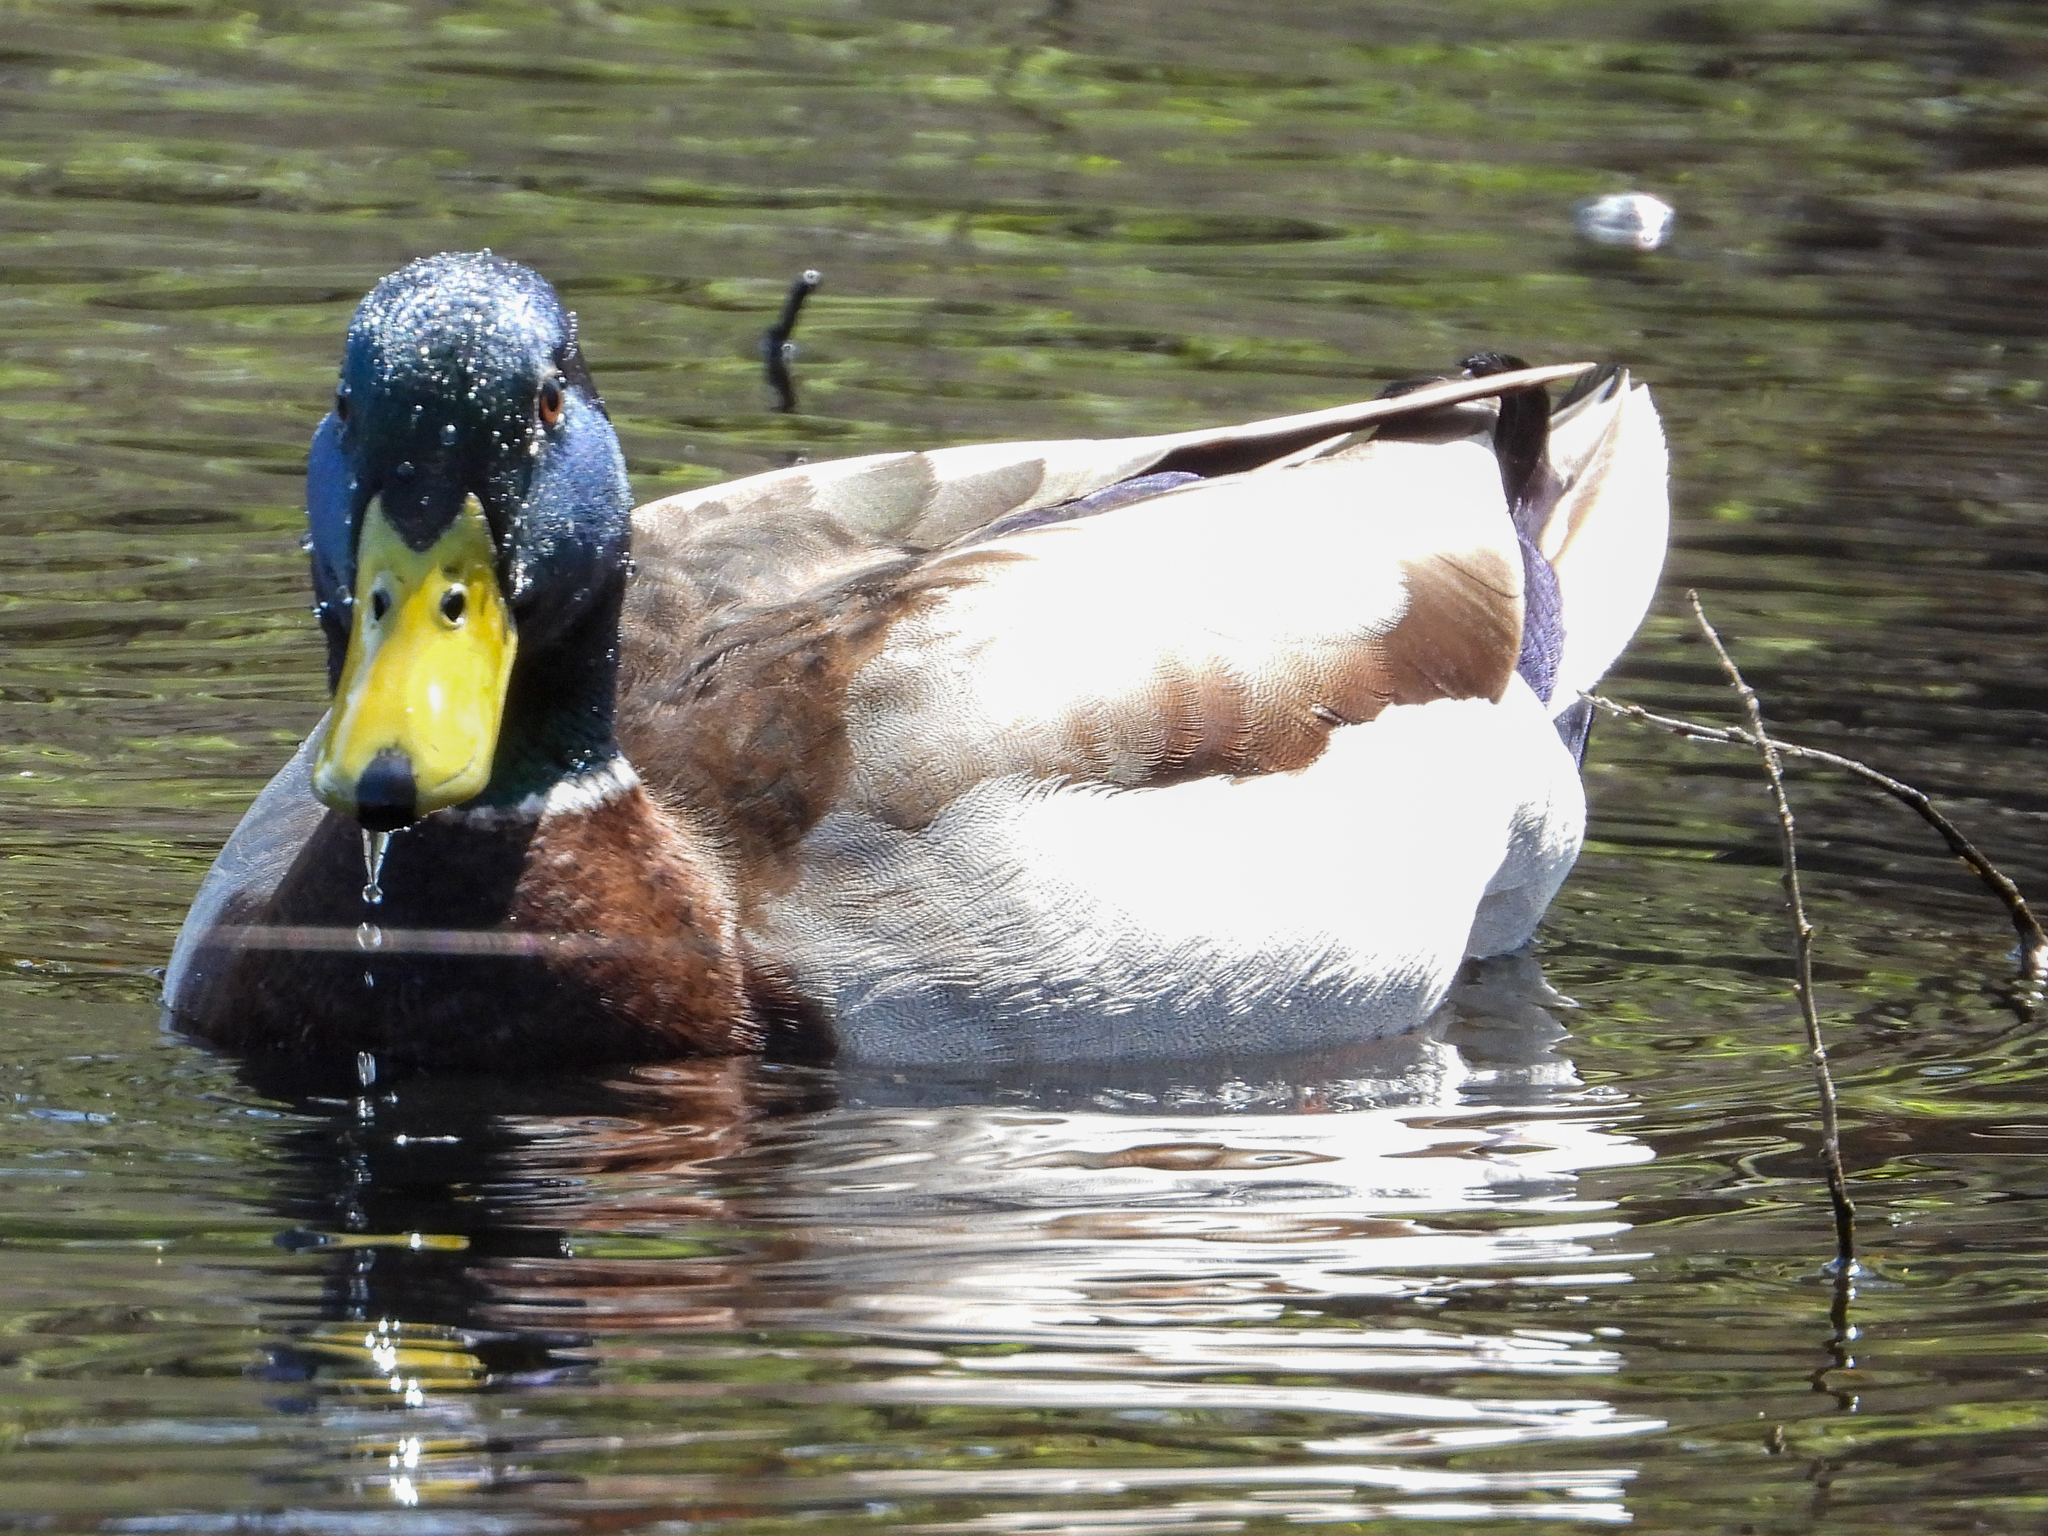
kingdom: Animalia
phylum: Chordata
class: Aves
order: Anseriformes
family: Anatidae
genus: Anas
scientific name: Anas platyrhynchos
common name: Mallard
